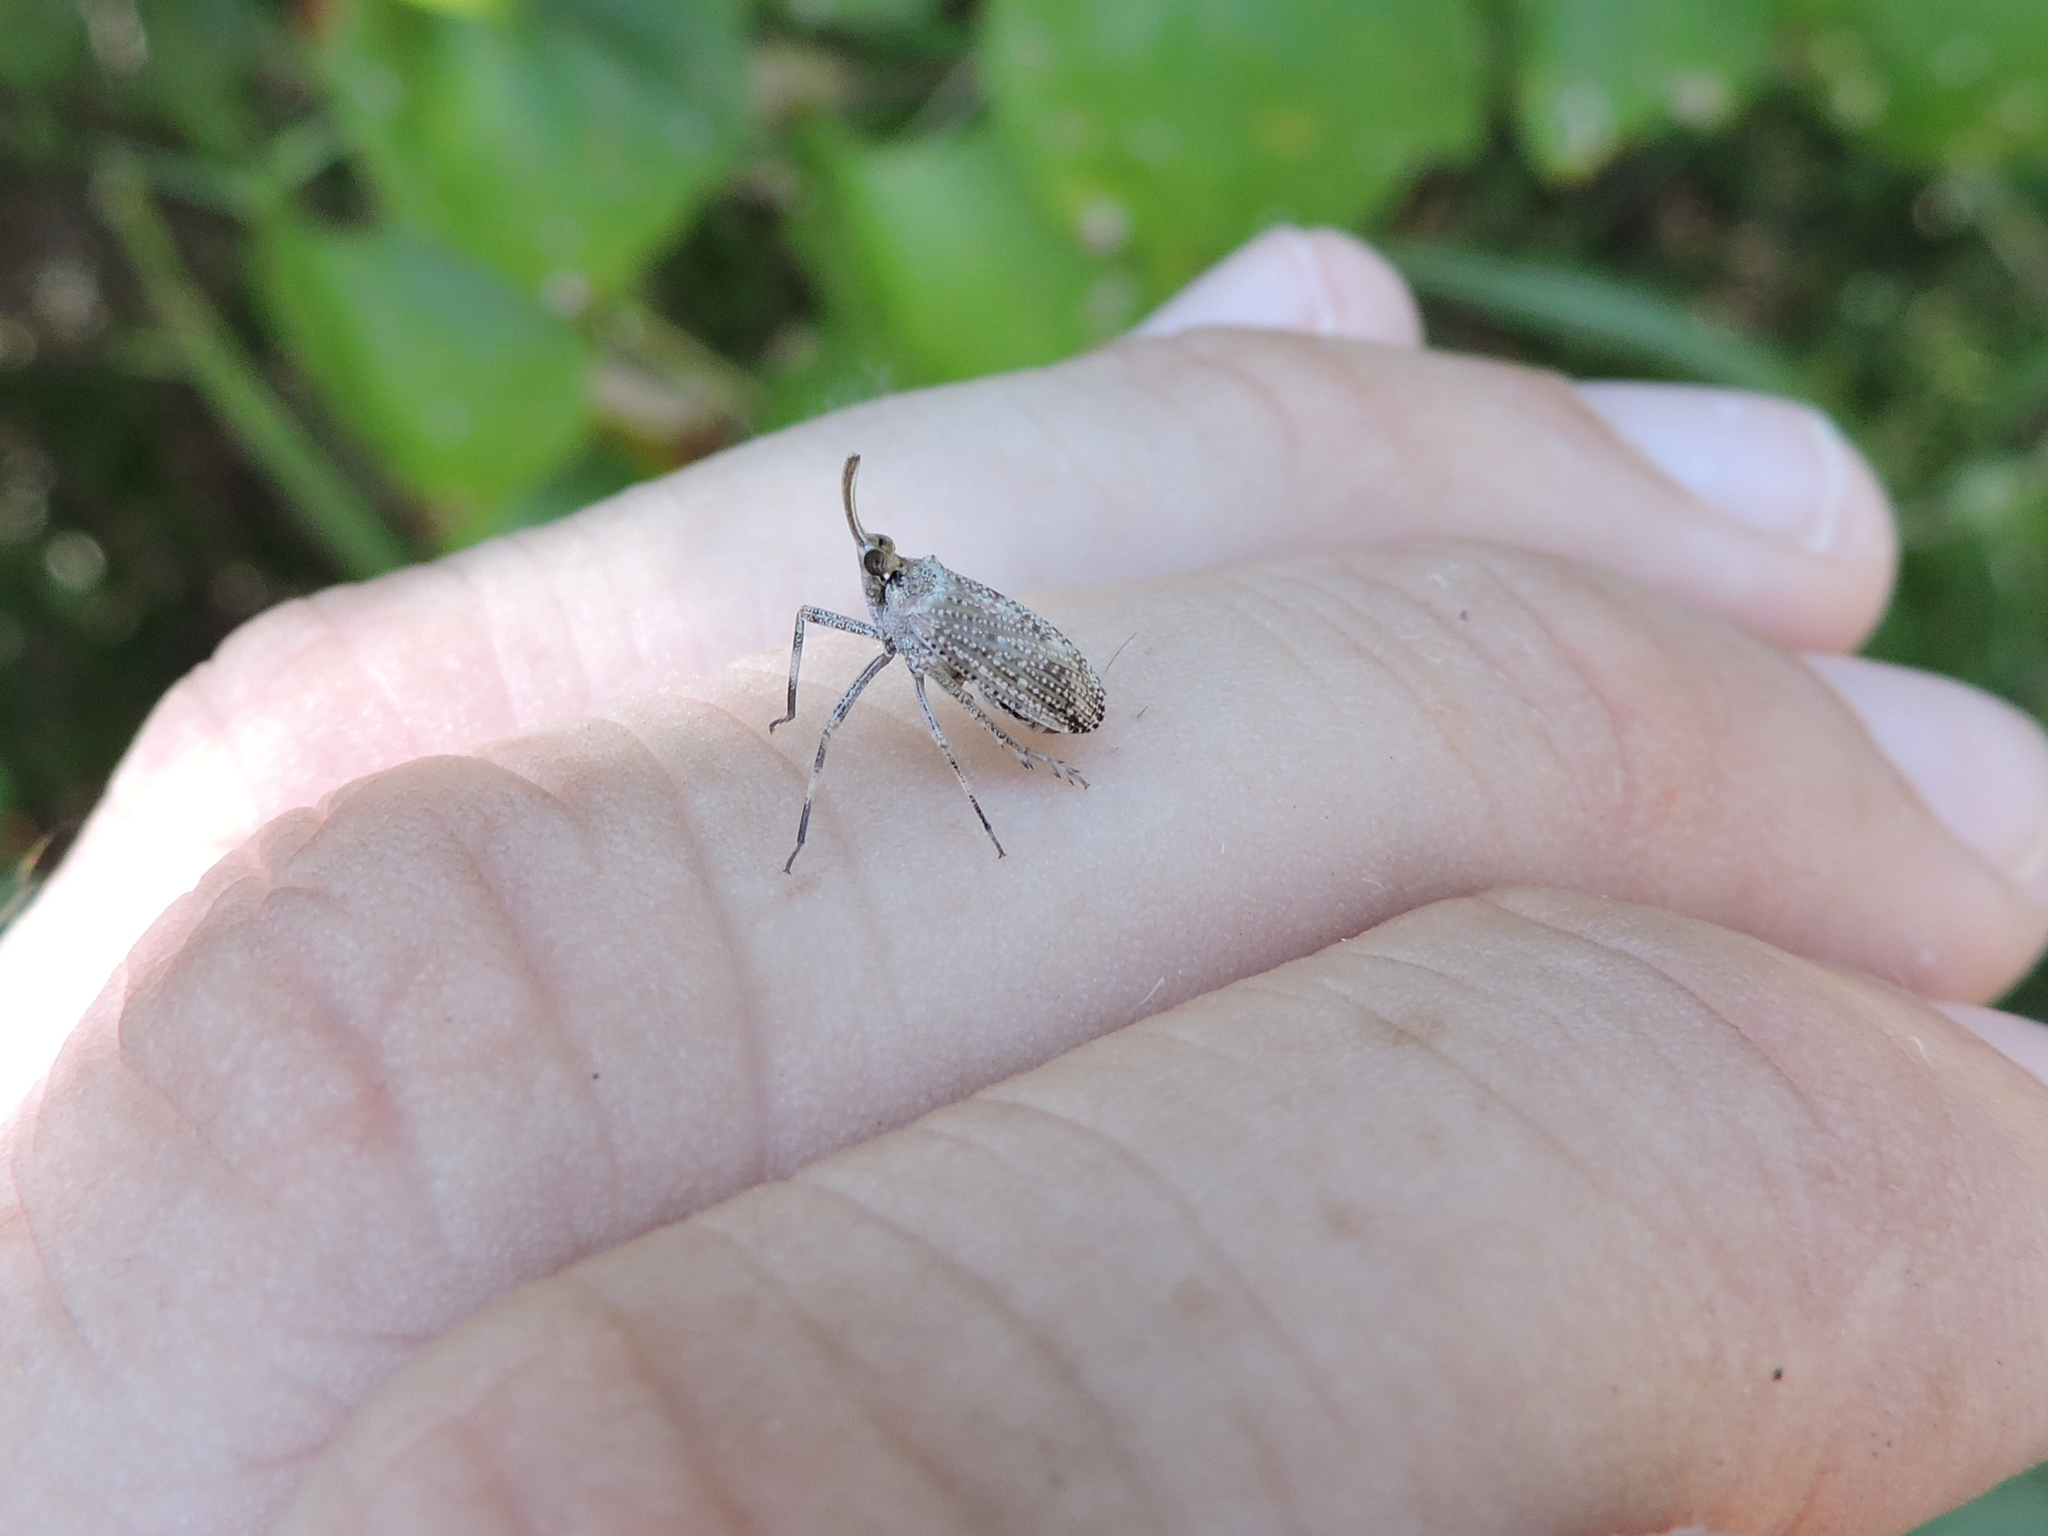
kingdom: Animalia
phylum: Arthropoda
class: Insecta
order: Hemiptera
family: Dictyopharidae
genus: Scolops
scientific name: Scolops pungens
